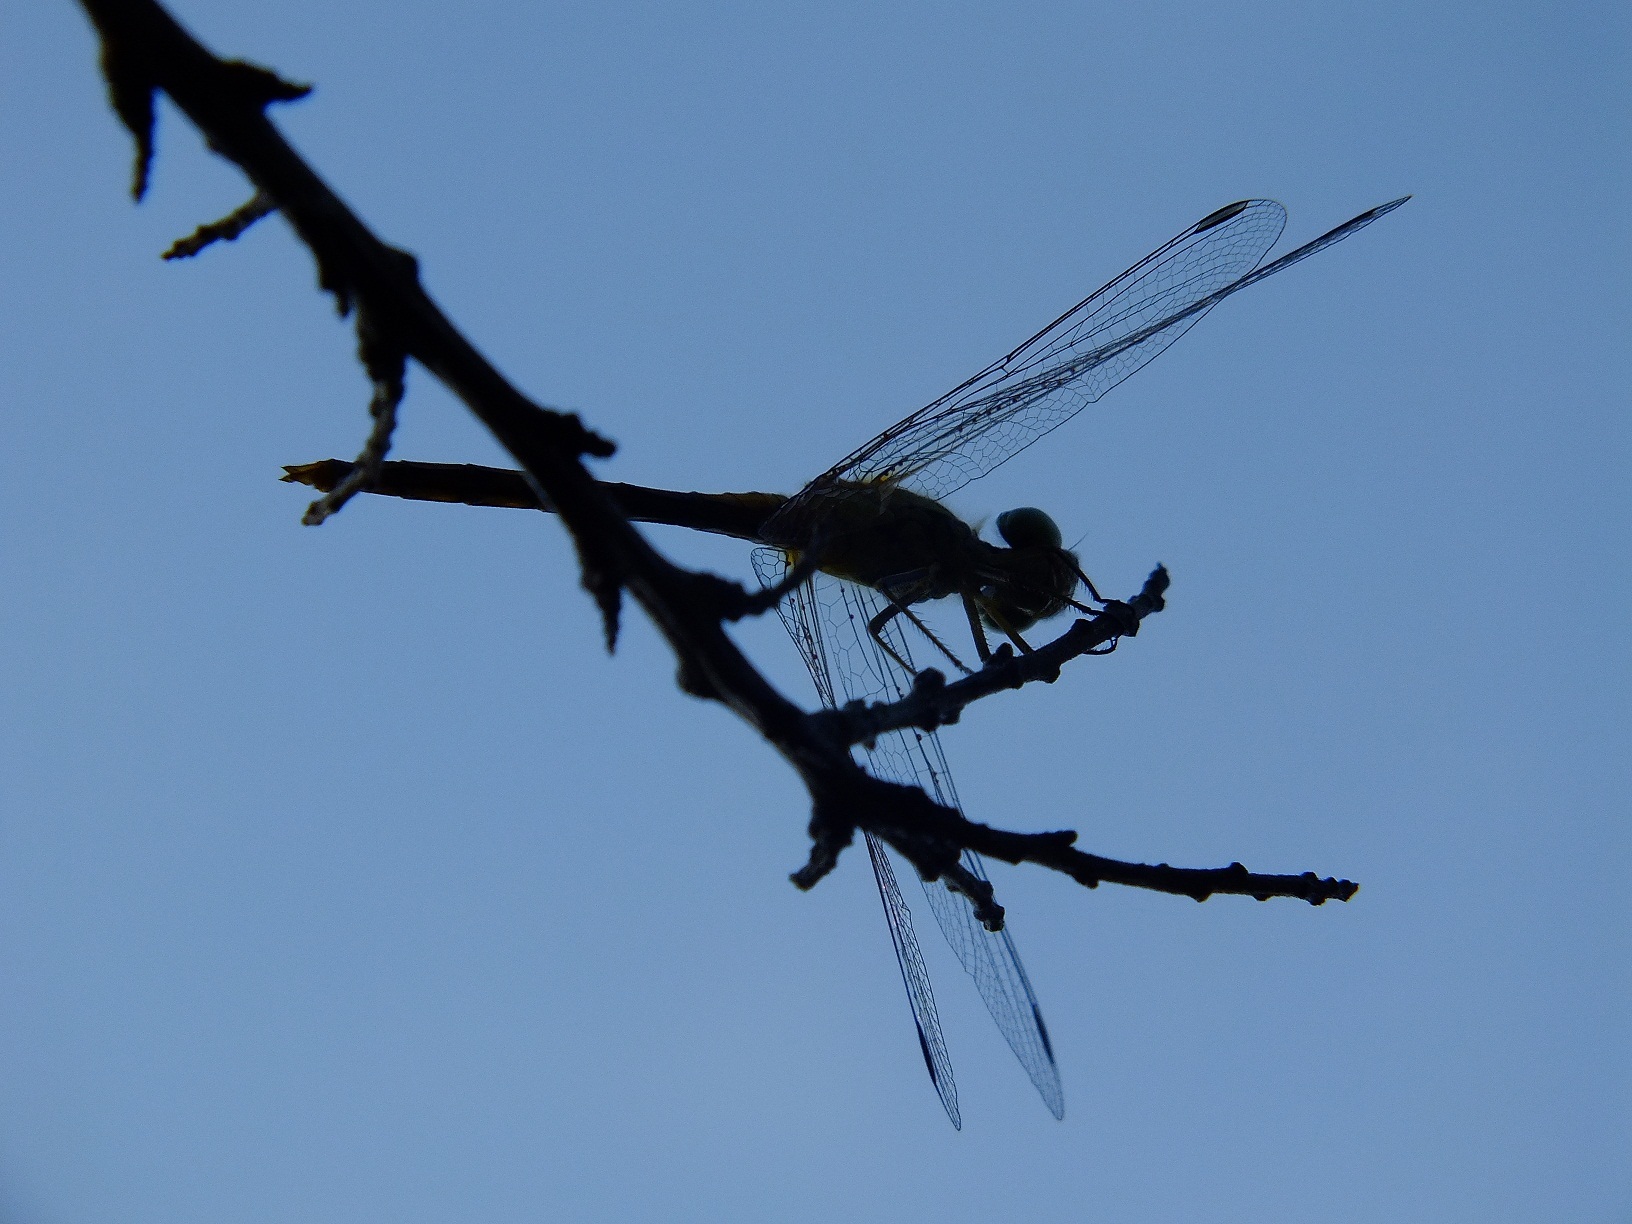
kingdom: Animalia
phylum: Arthropoda
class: Insecta
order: Odonata
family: Libellulidae
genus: Sympetrum
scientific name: Sympetrum meridionale
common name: Southern darter
